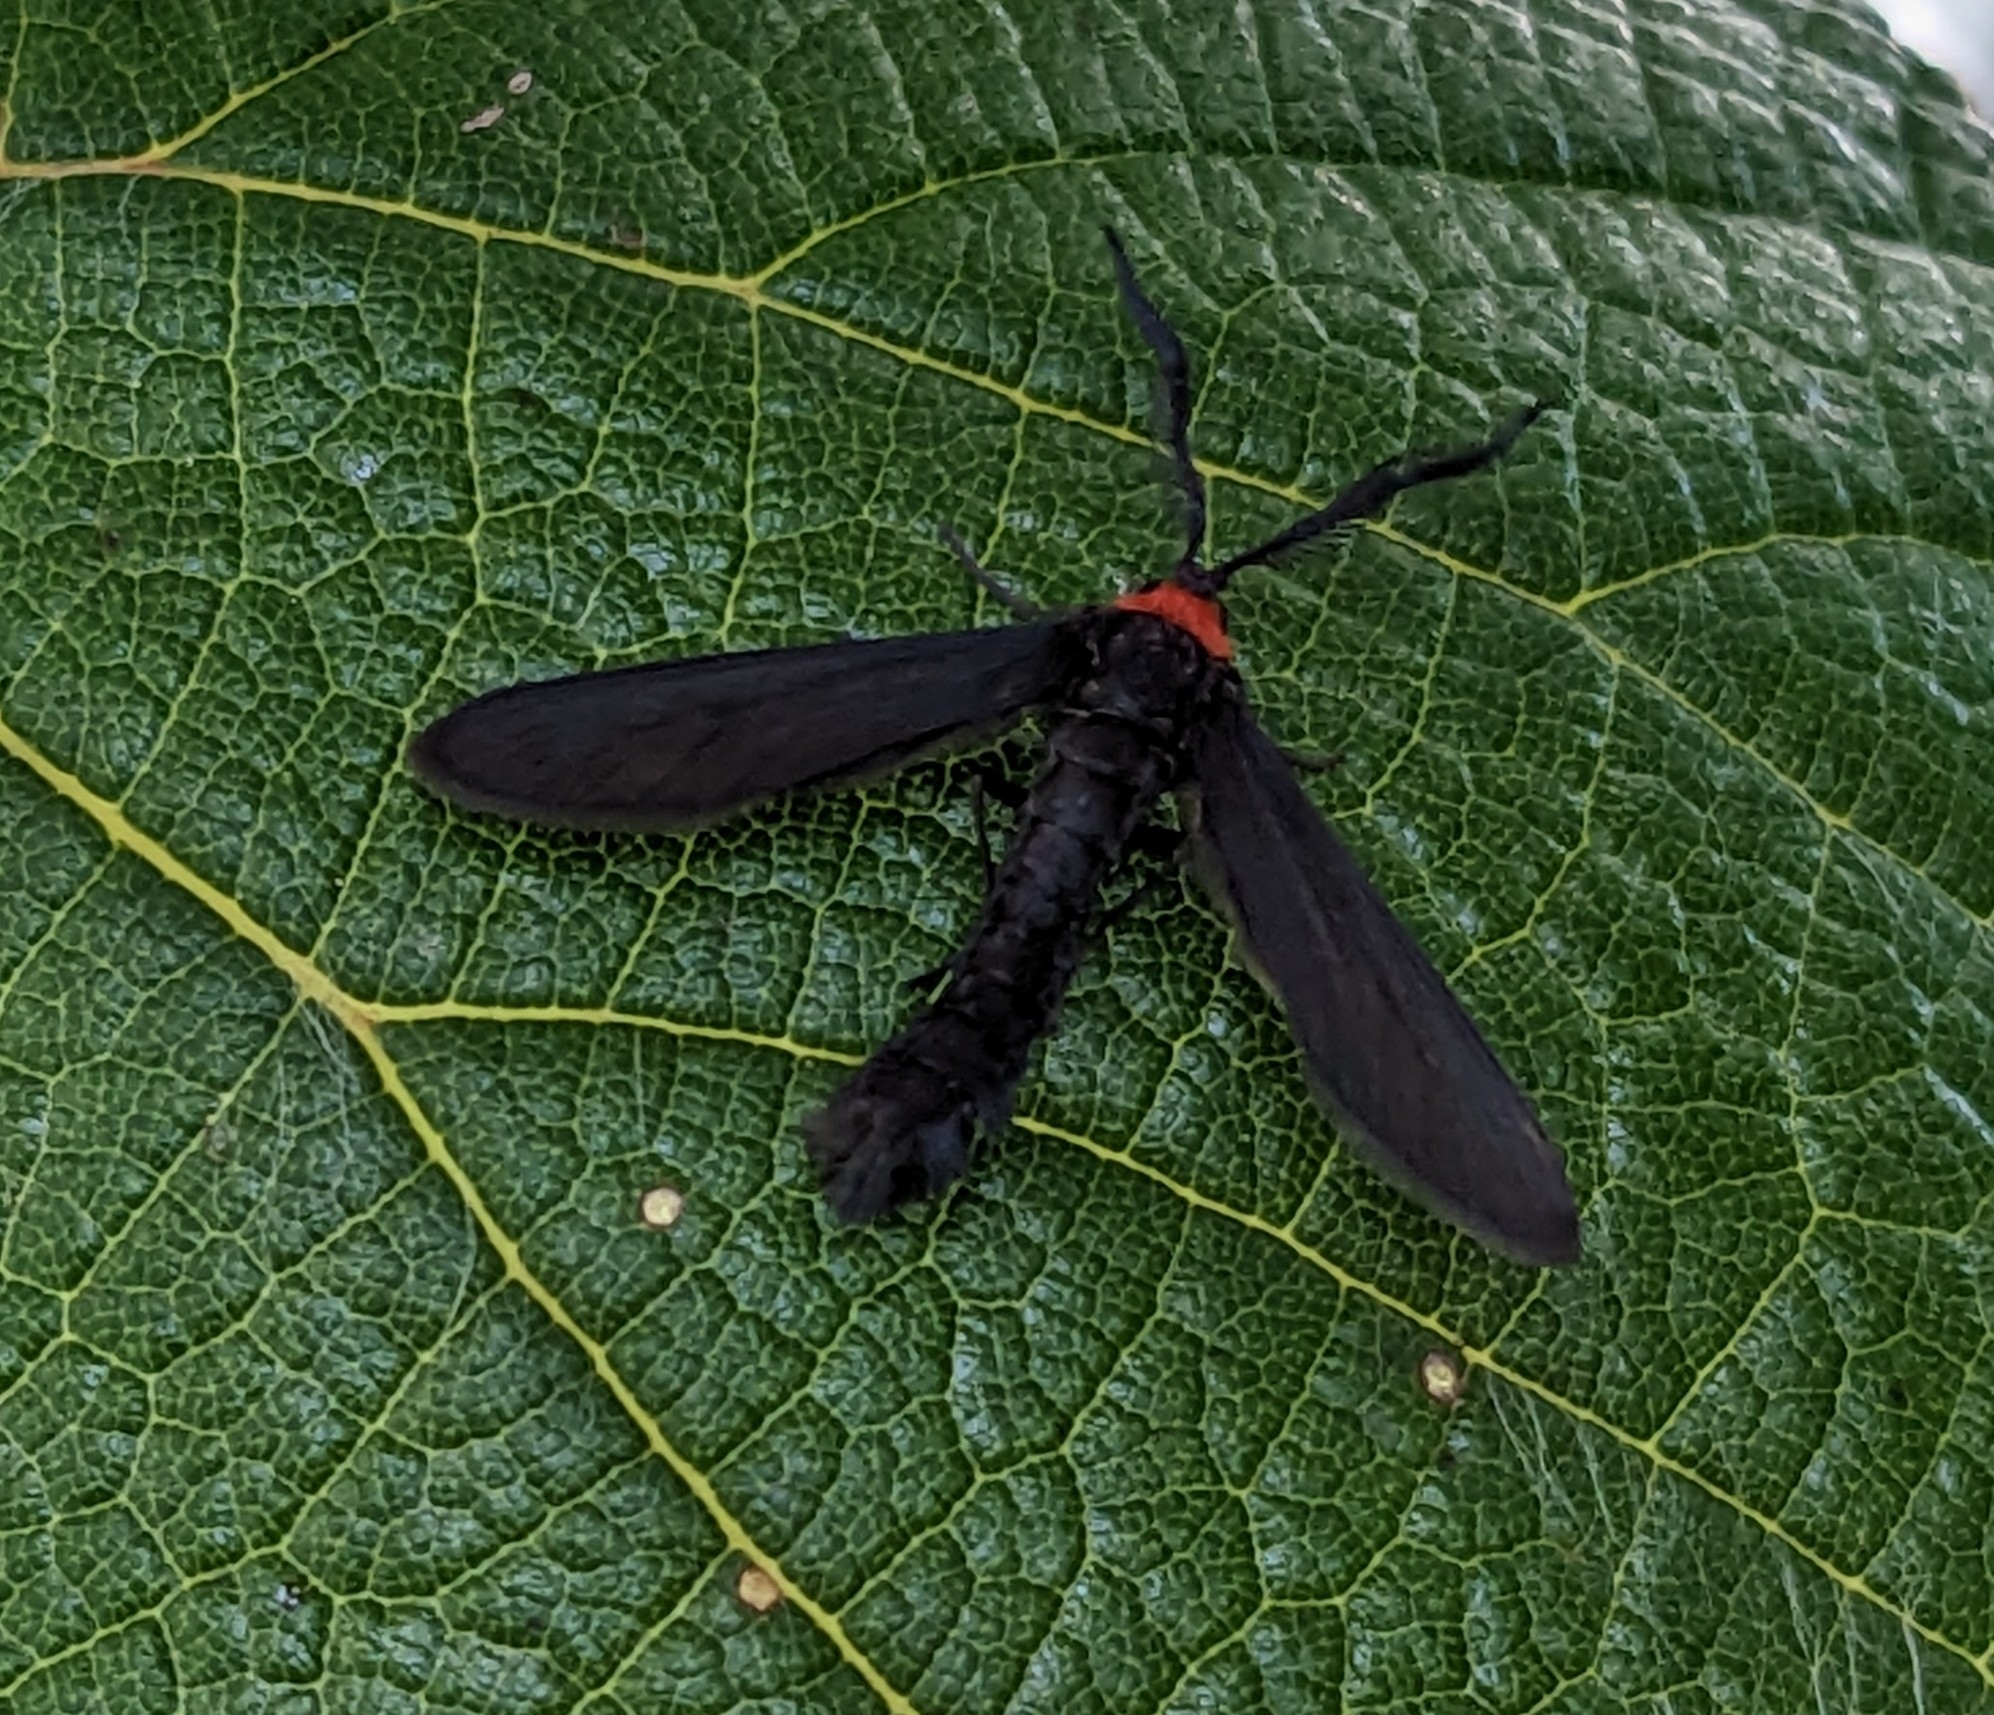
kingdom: Animalia
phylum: Arthropoda
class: Insecta
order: Lepidoptera
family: Zygaenidae
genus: Harrisina
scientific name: Harrisina americana
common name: Grapeleaf skeletonizer moth
